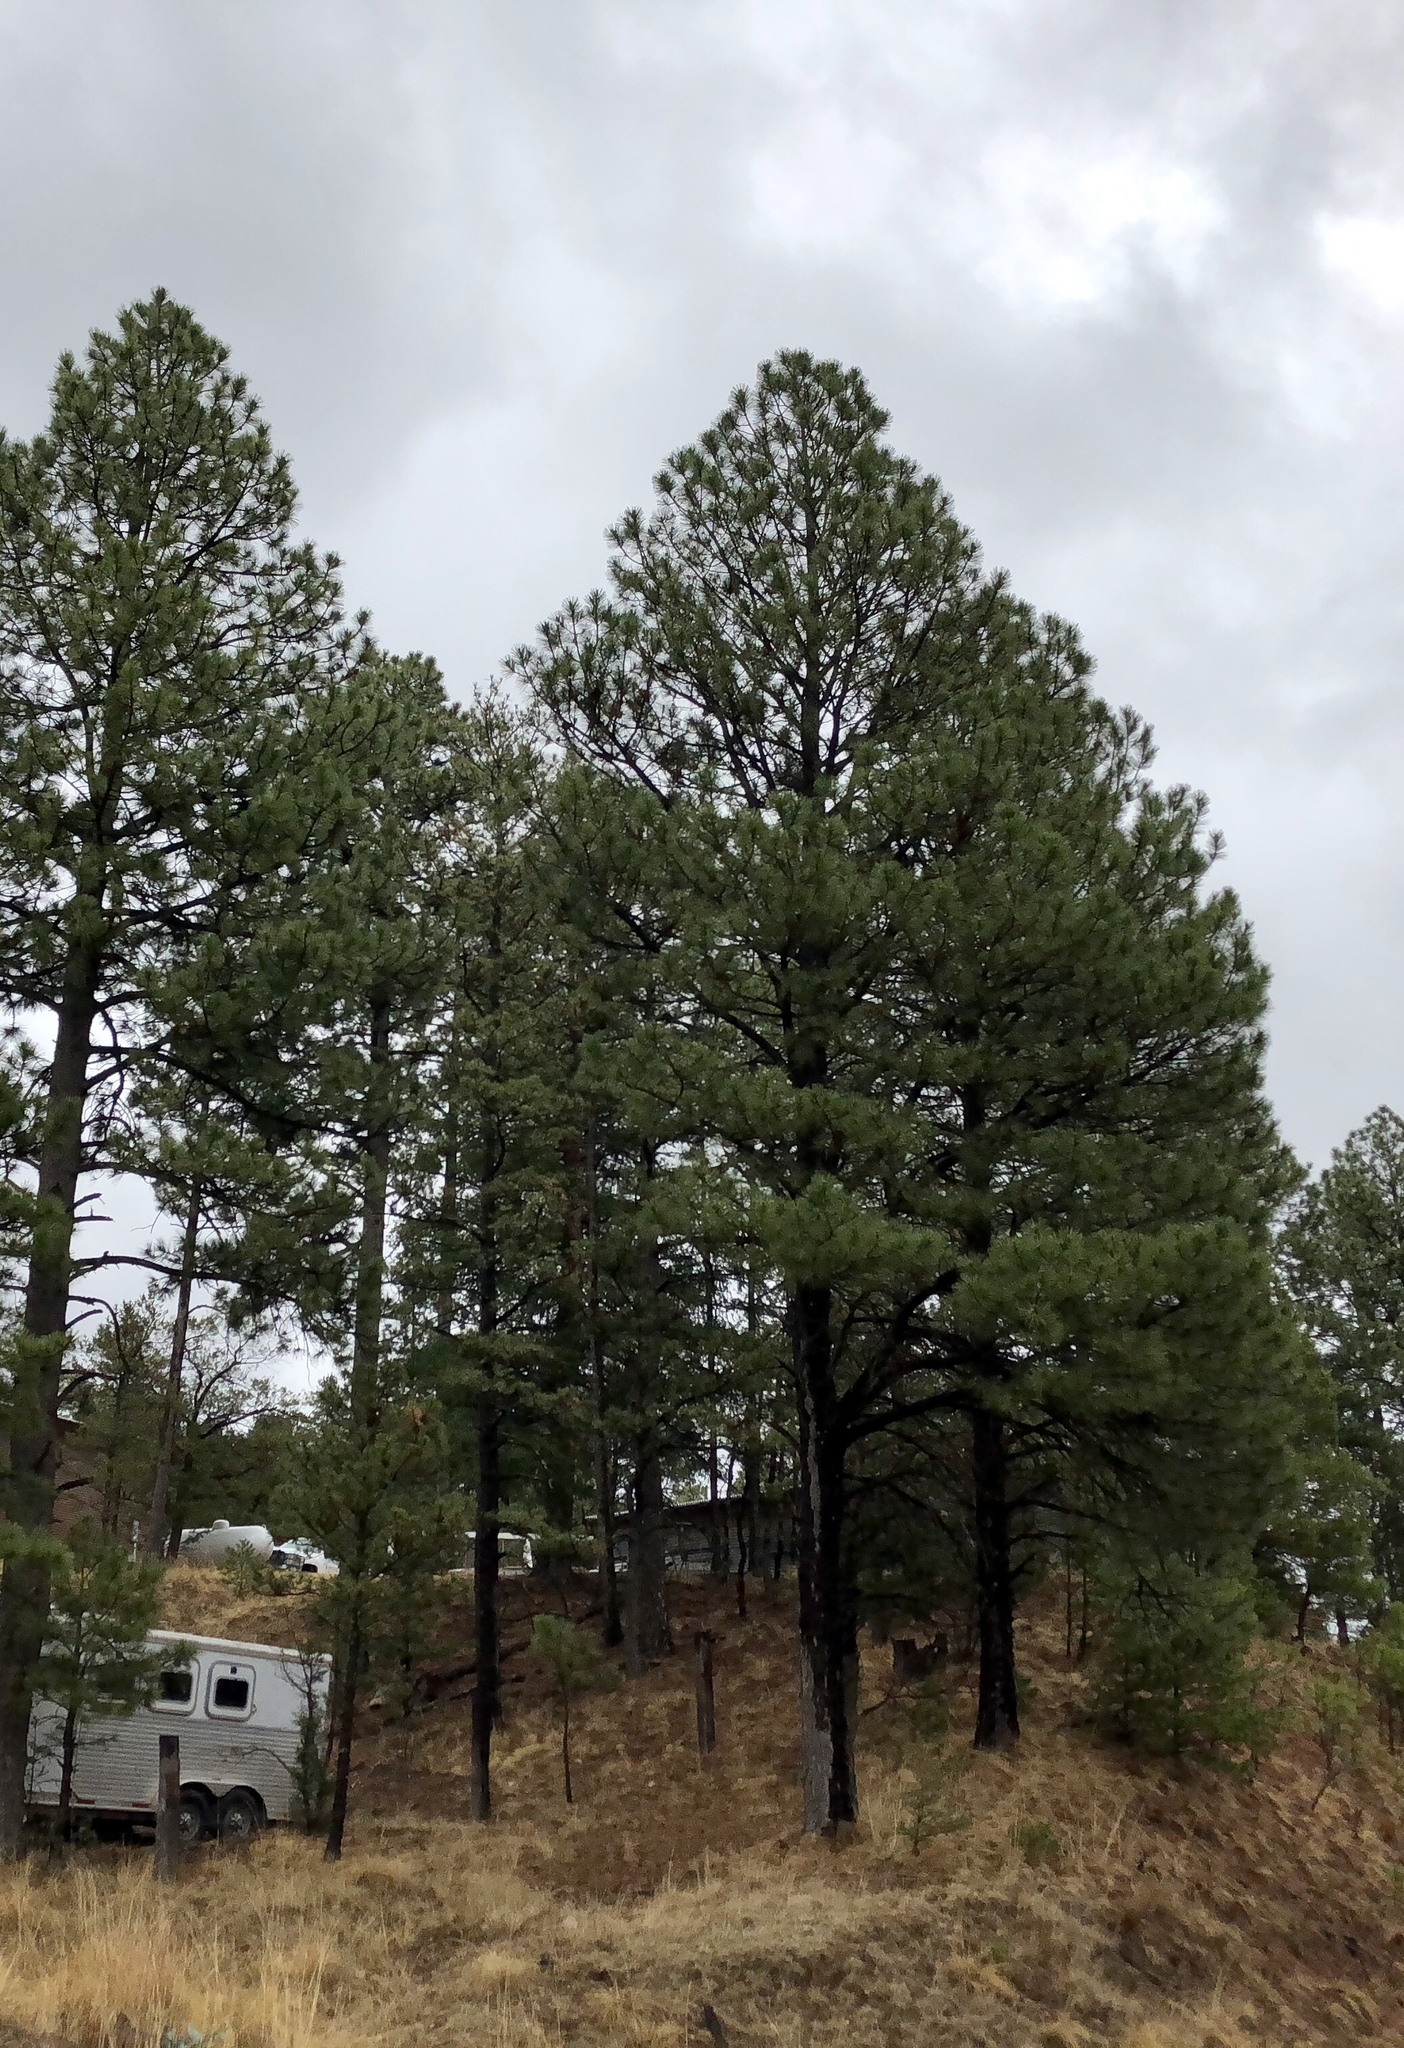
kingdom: Plantae
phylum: Tracheophyta
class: Pinopsida
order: Pinales
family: Pinaceae
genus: Pinus
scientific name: Pinus ponderosa
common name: Western yellow-pine
